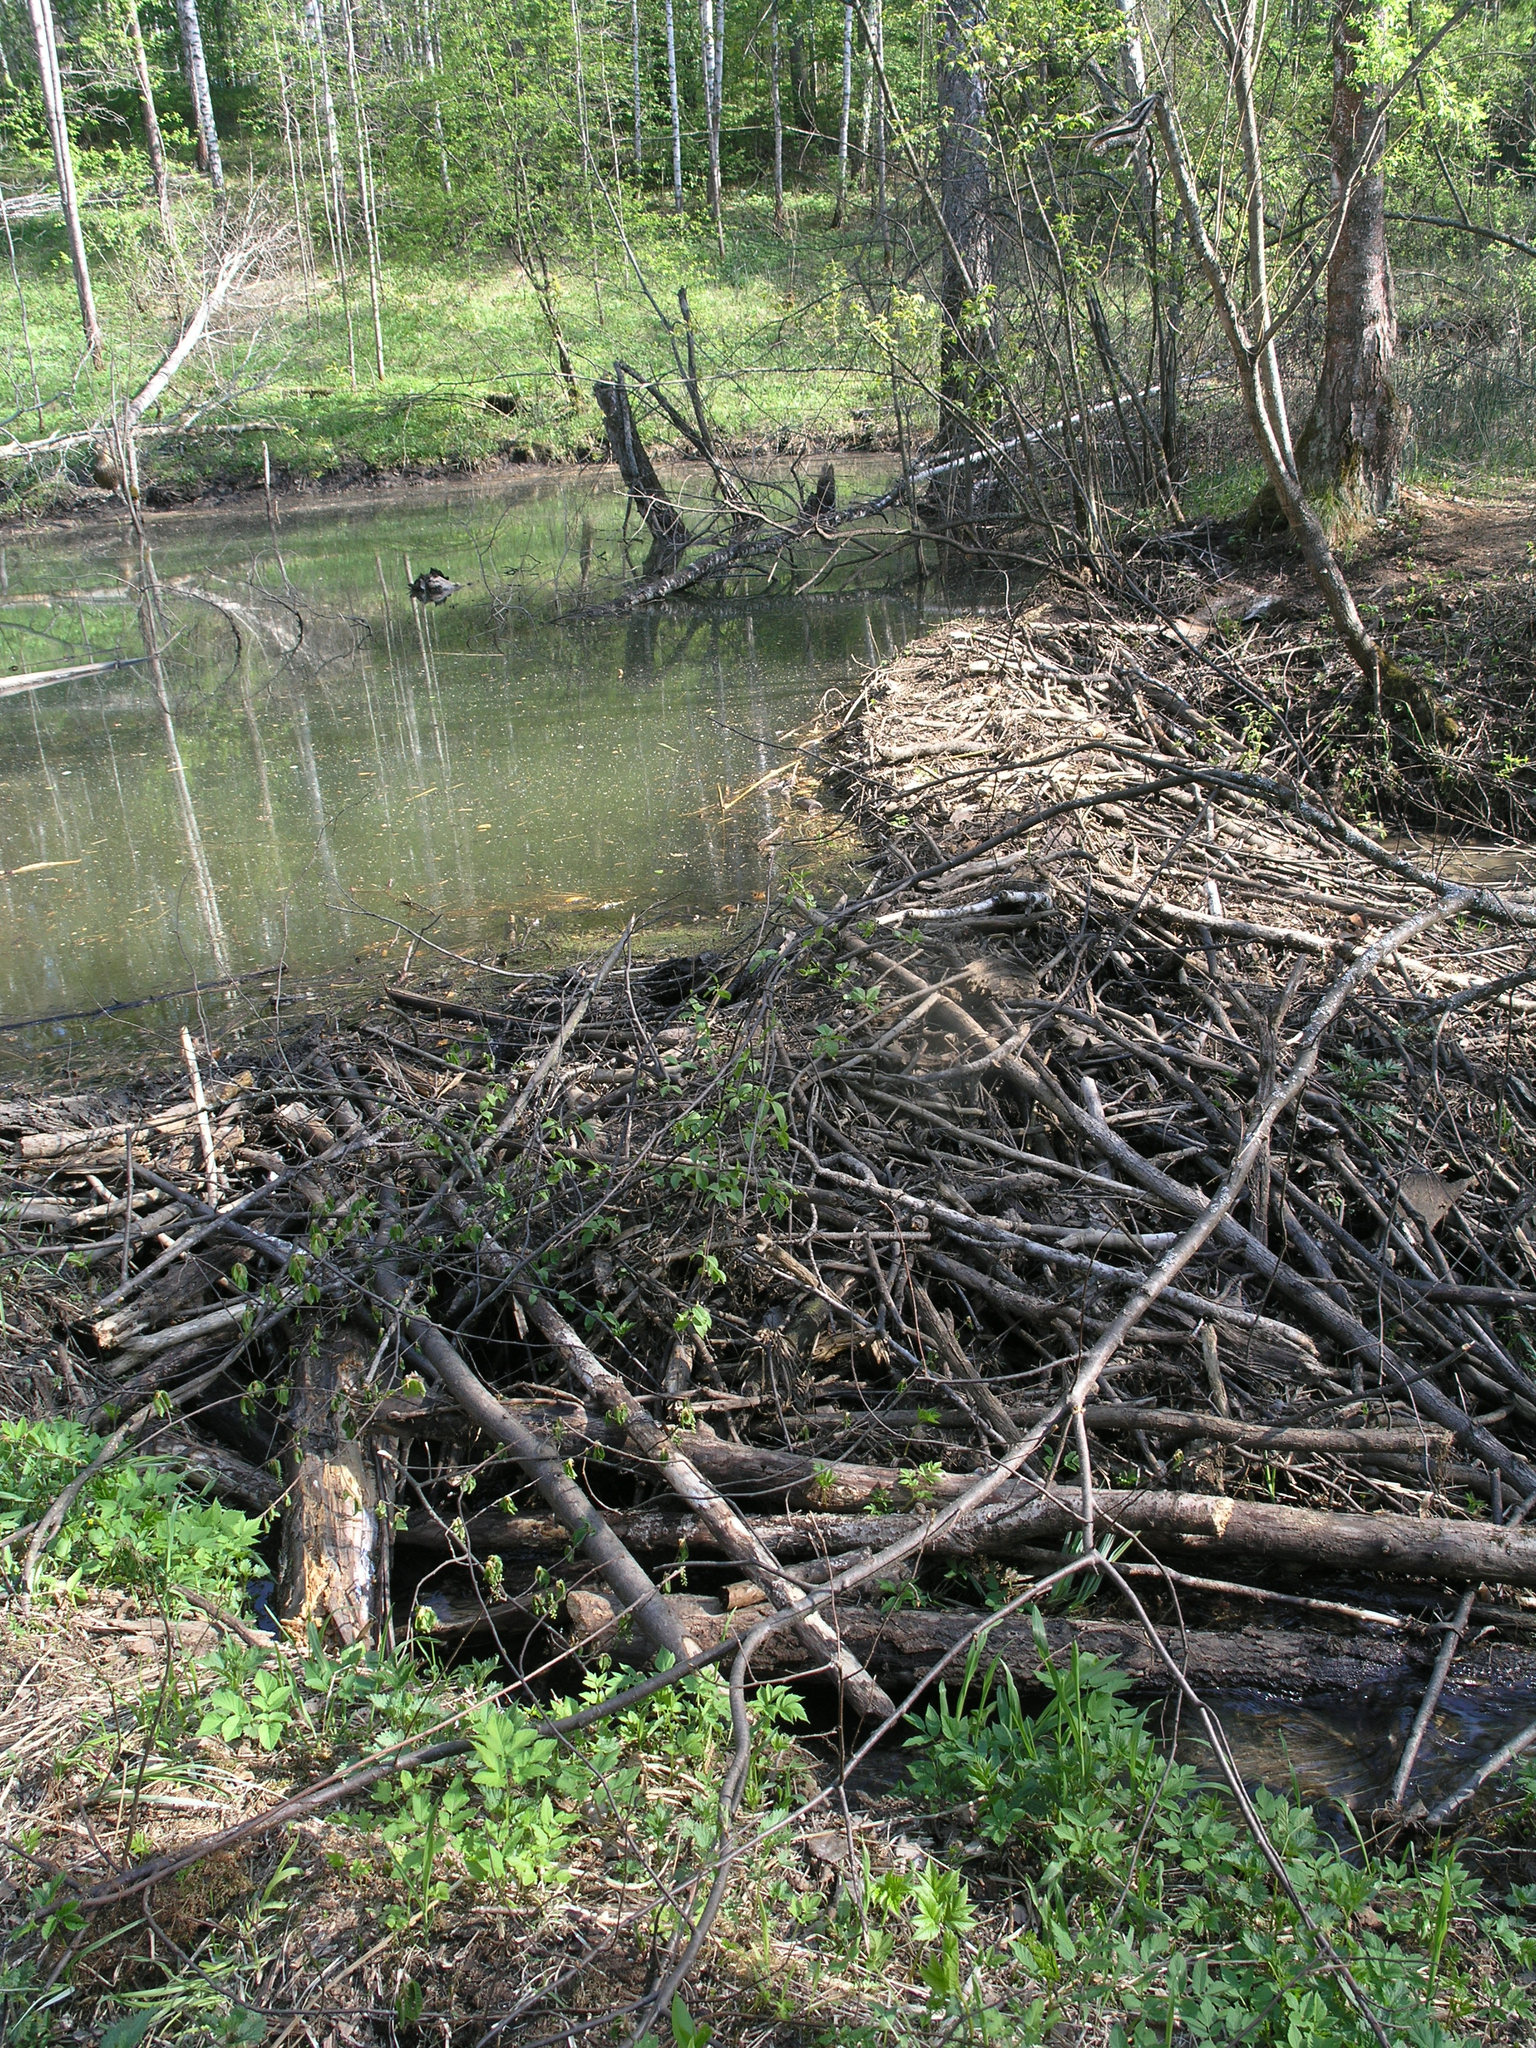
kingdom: Animalia
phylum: Chordata
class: Mammalia
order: Rodentia
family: Castoridae
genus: Castor
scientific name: Castor fiber
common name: Eurasian beaver
